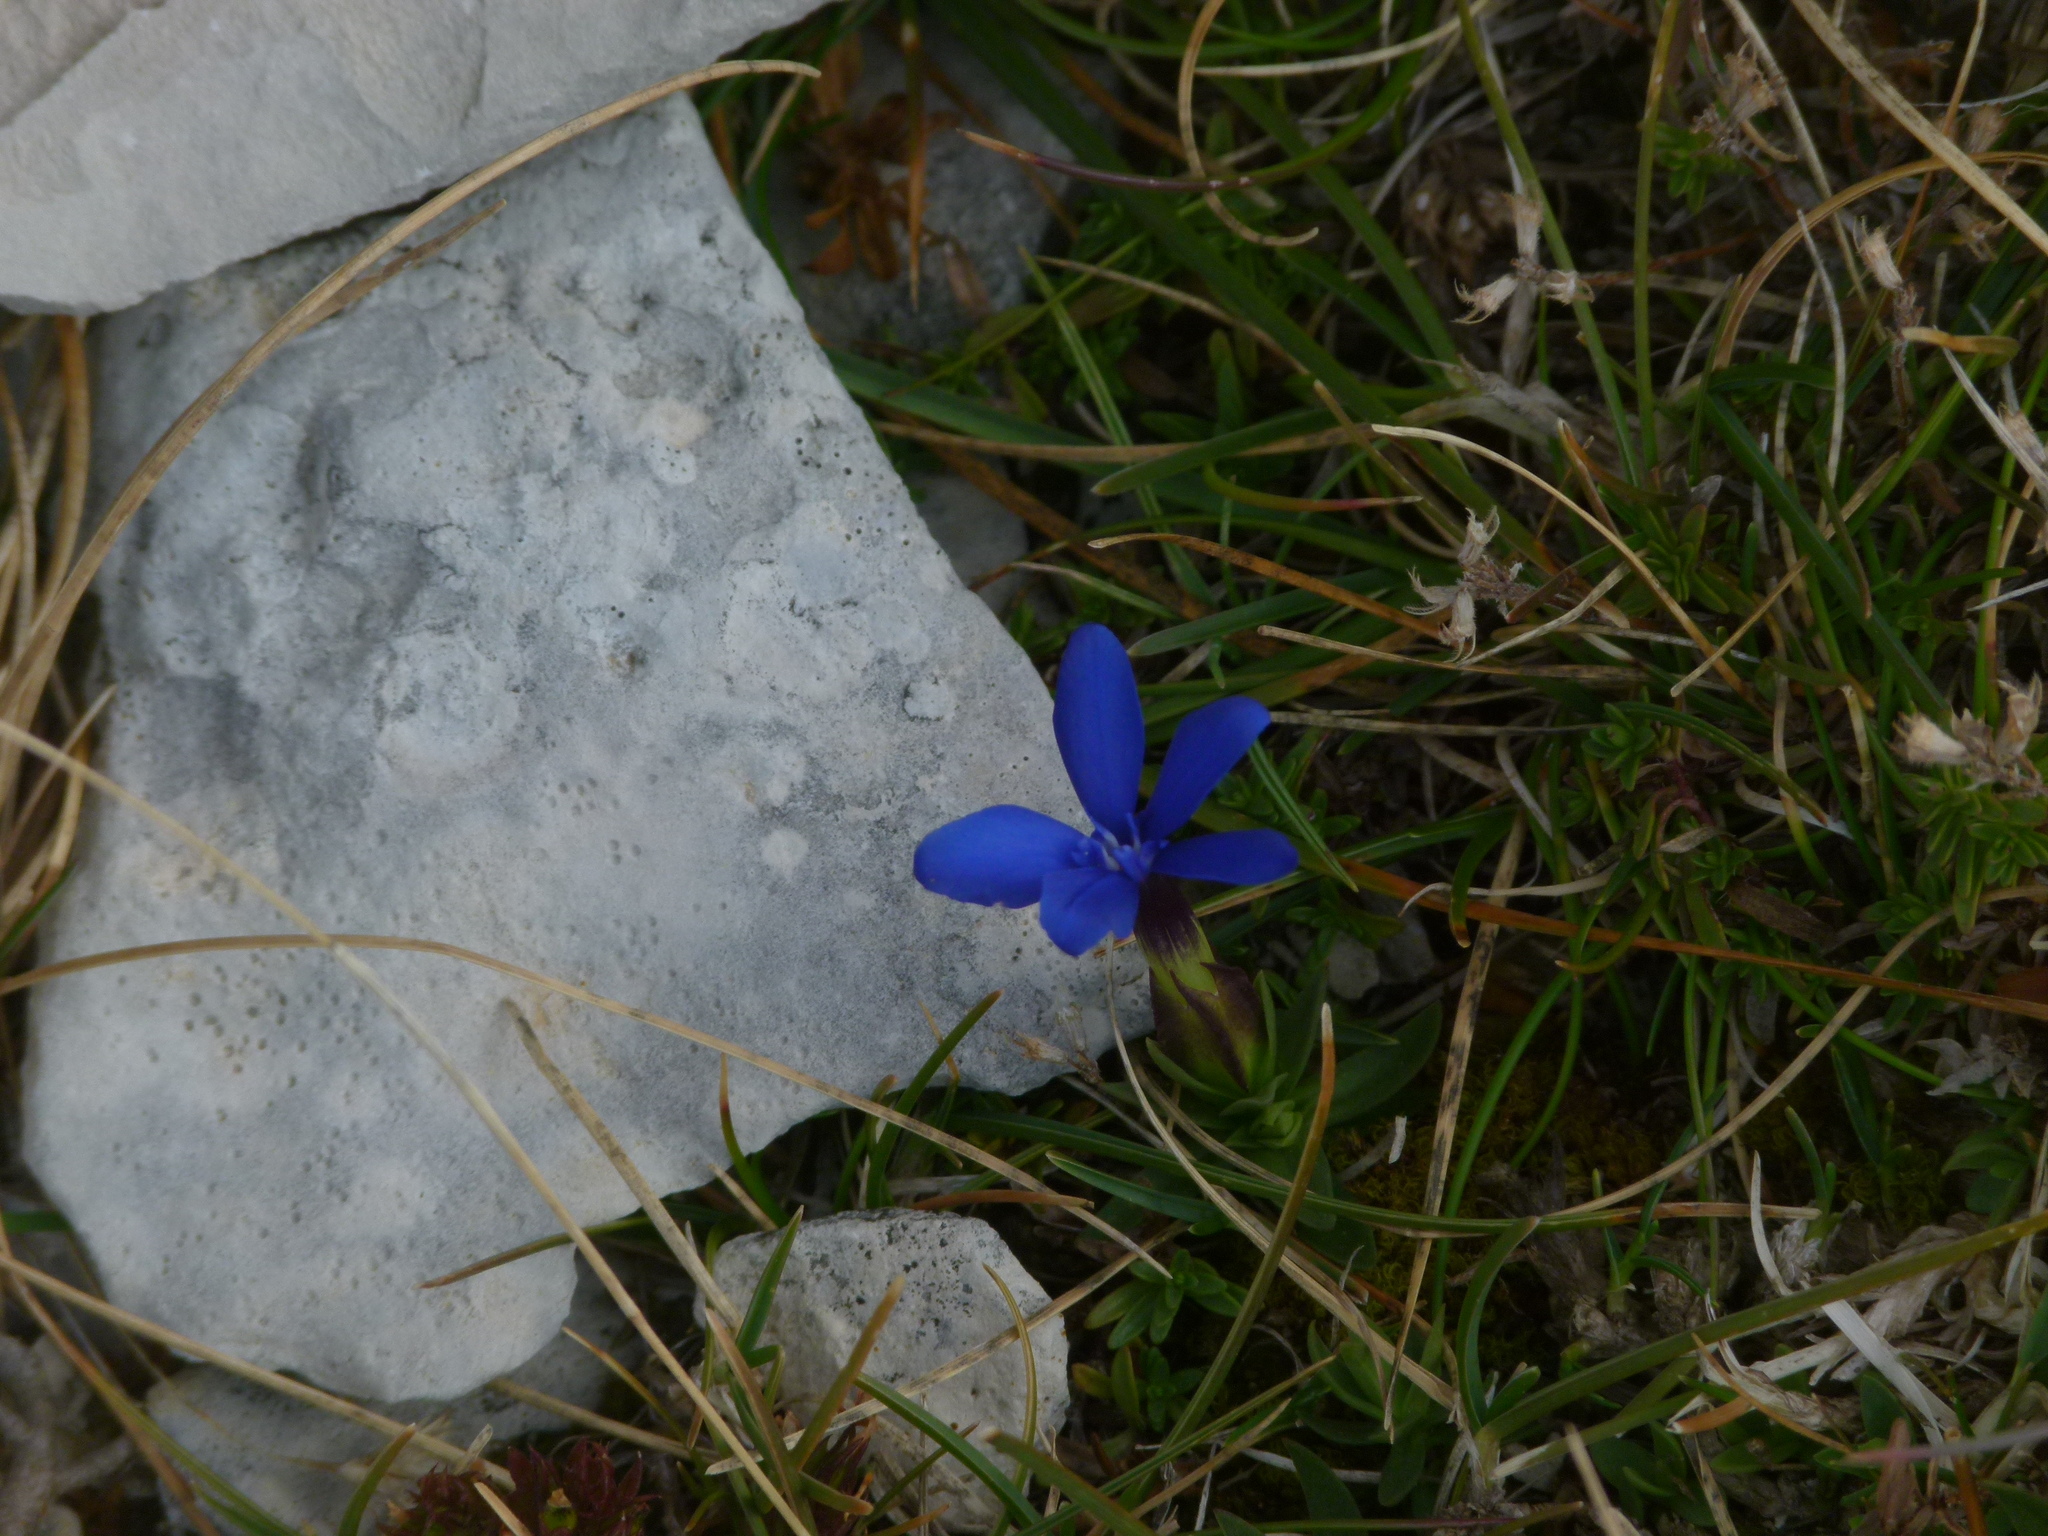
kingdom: Plantae
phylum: Tracheophyta
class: Magnoliopsida
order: Gentianales
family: Gentianaceae
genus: Gentiana
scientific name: Gentiana verna
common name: Spring gentian
